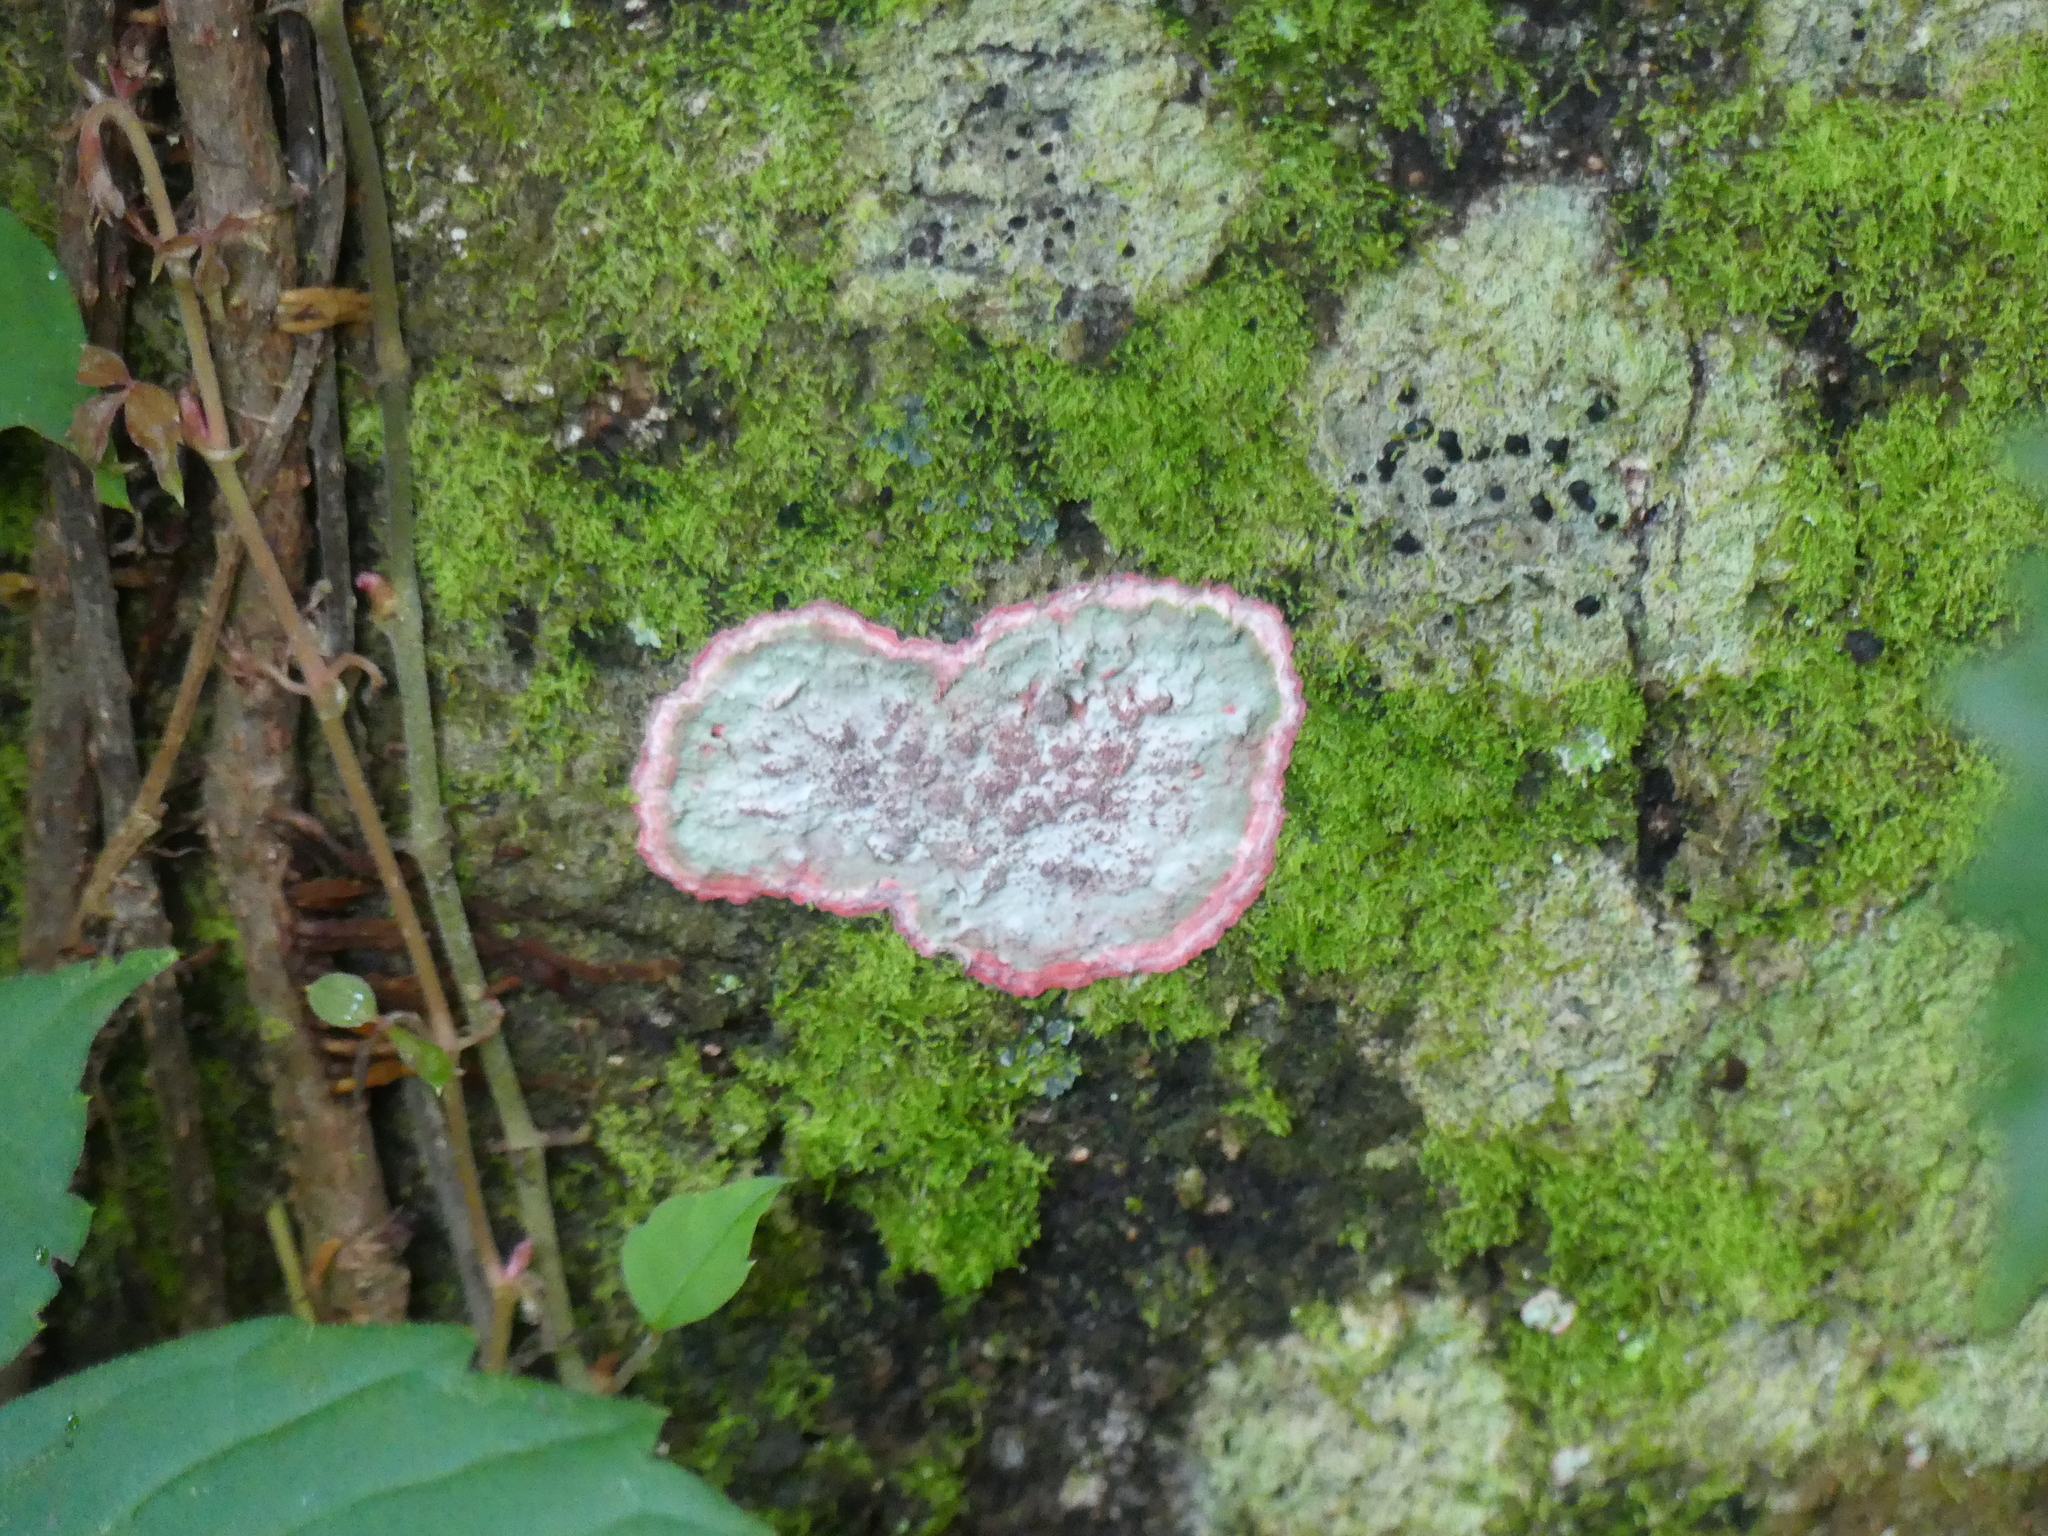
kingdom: Fungi
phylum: Ascomycota
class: Arthoniomycetes
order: Arthoniales
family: Arthoniaceae
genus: Herpothallon
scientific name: Herpothallon rubrocinctum
